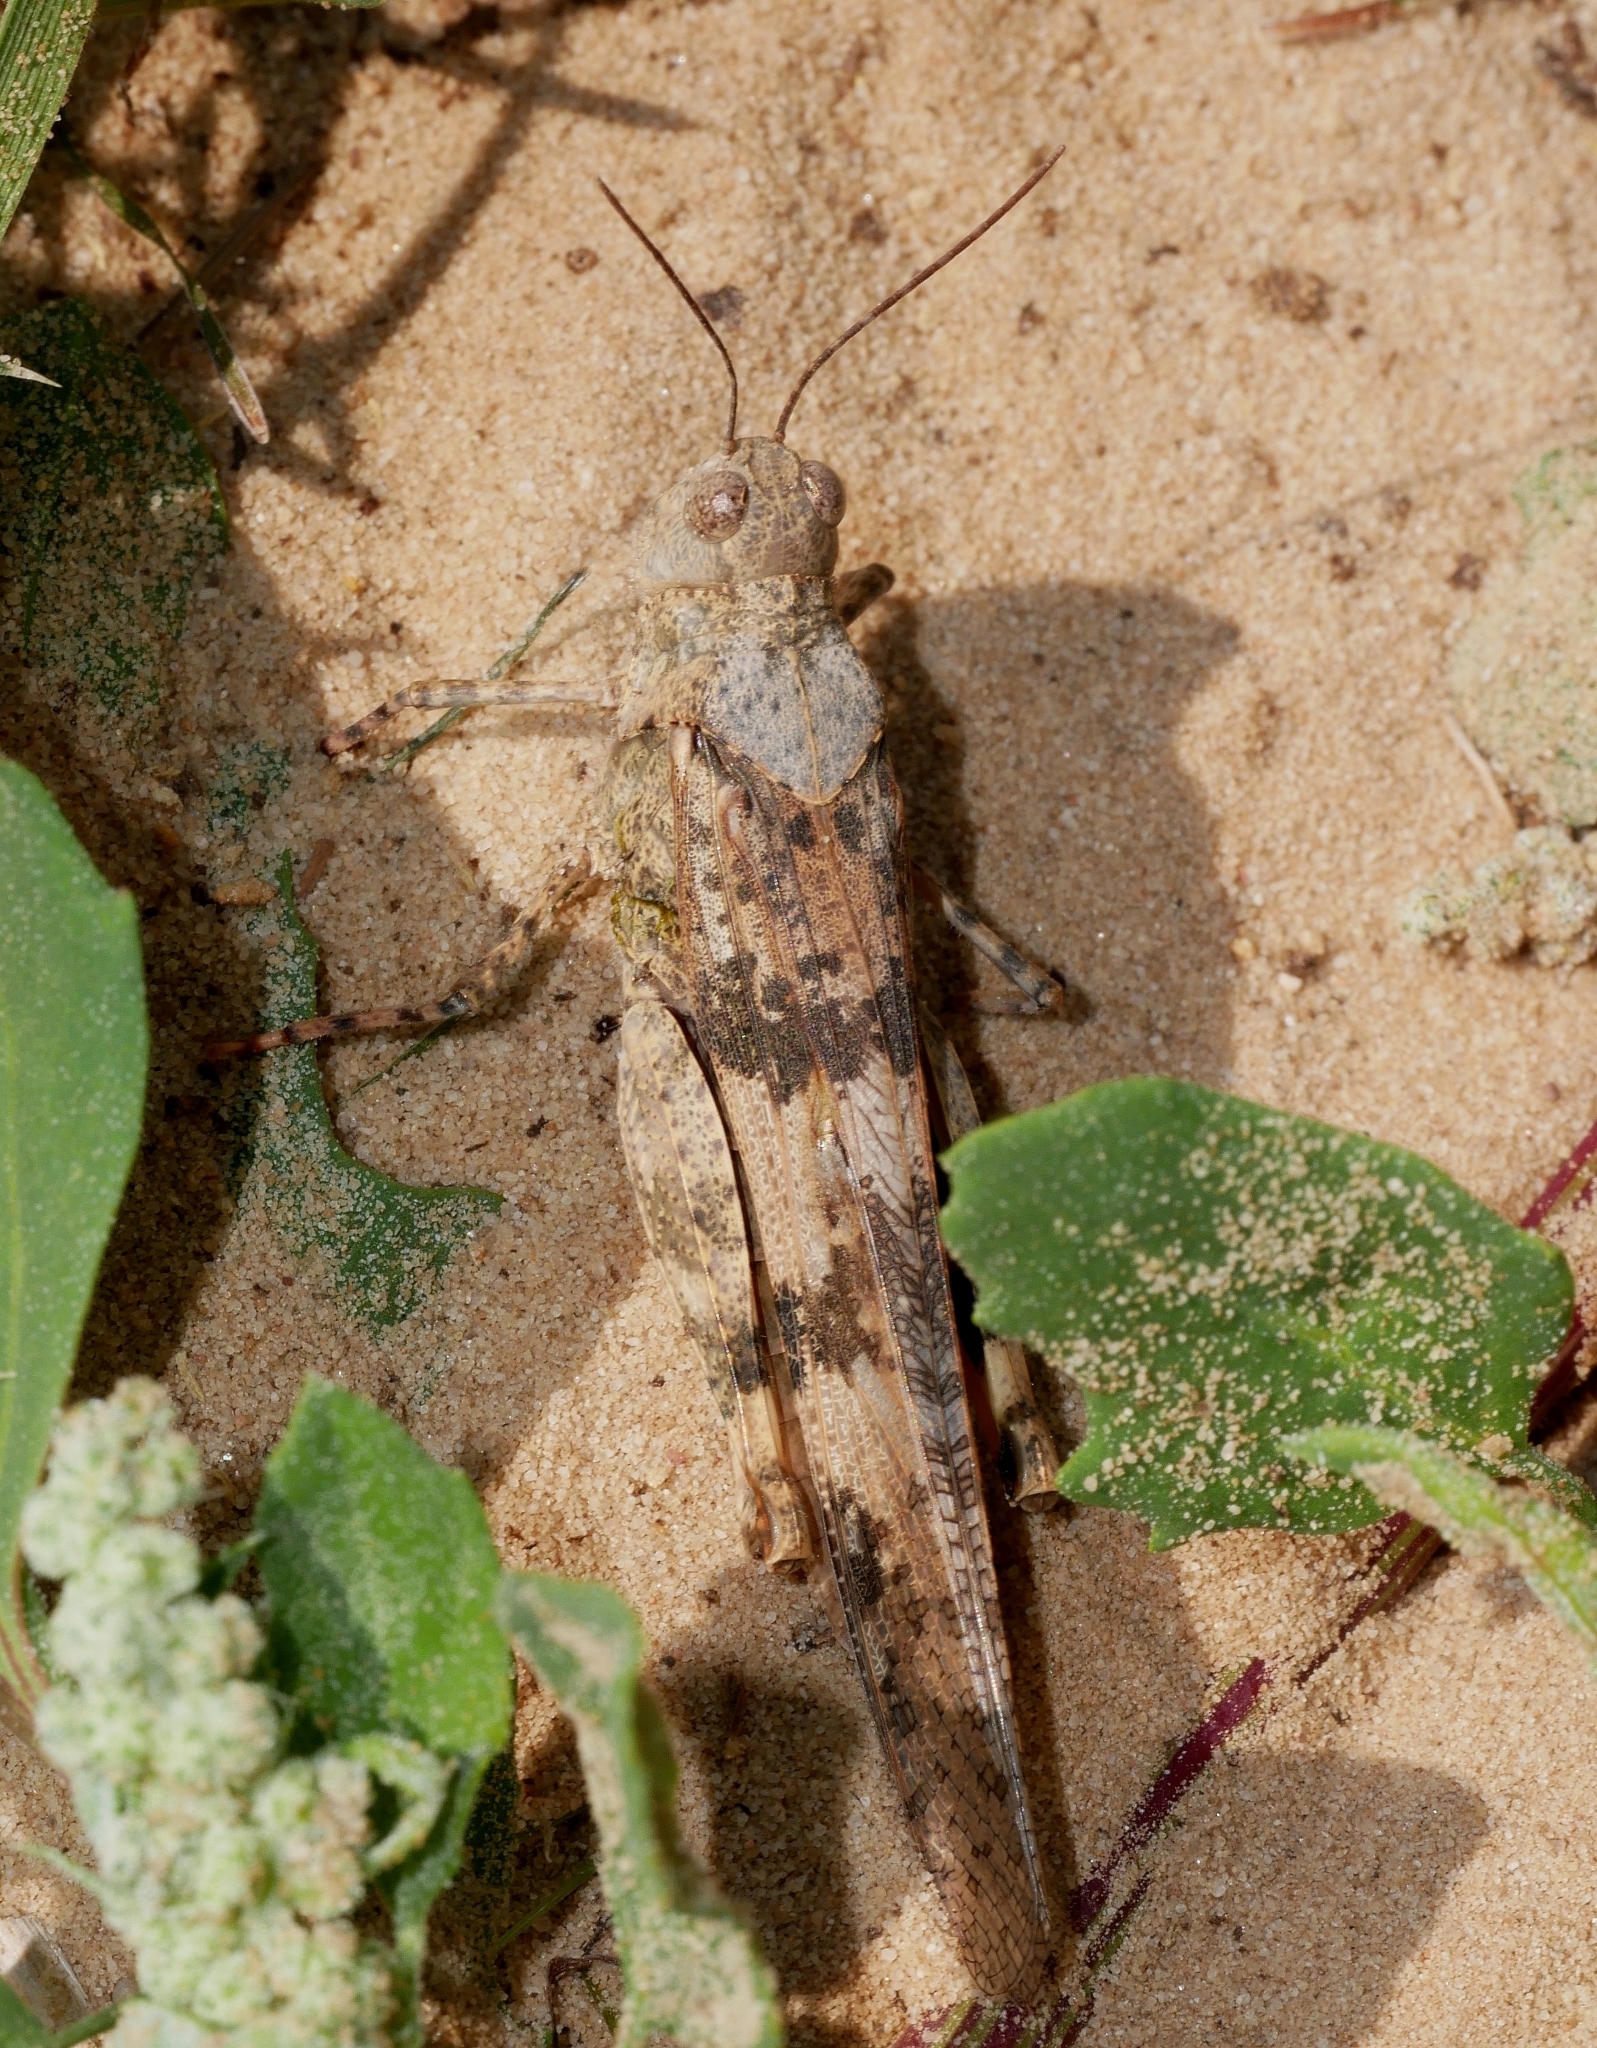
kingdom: Animalia
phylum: Arthropoda
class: Insecta
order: Orthoptera
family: Acrididae
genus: Trimerotropis
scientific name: Trimerotropis pallidipennis
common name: Pallid-winged grasshopper
